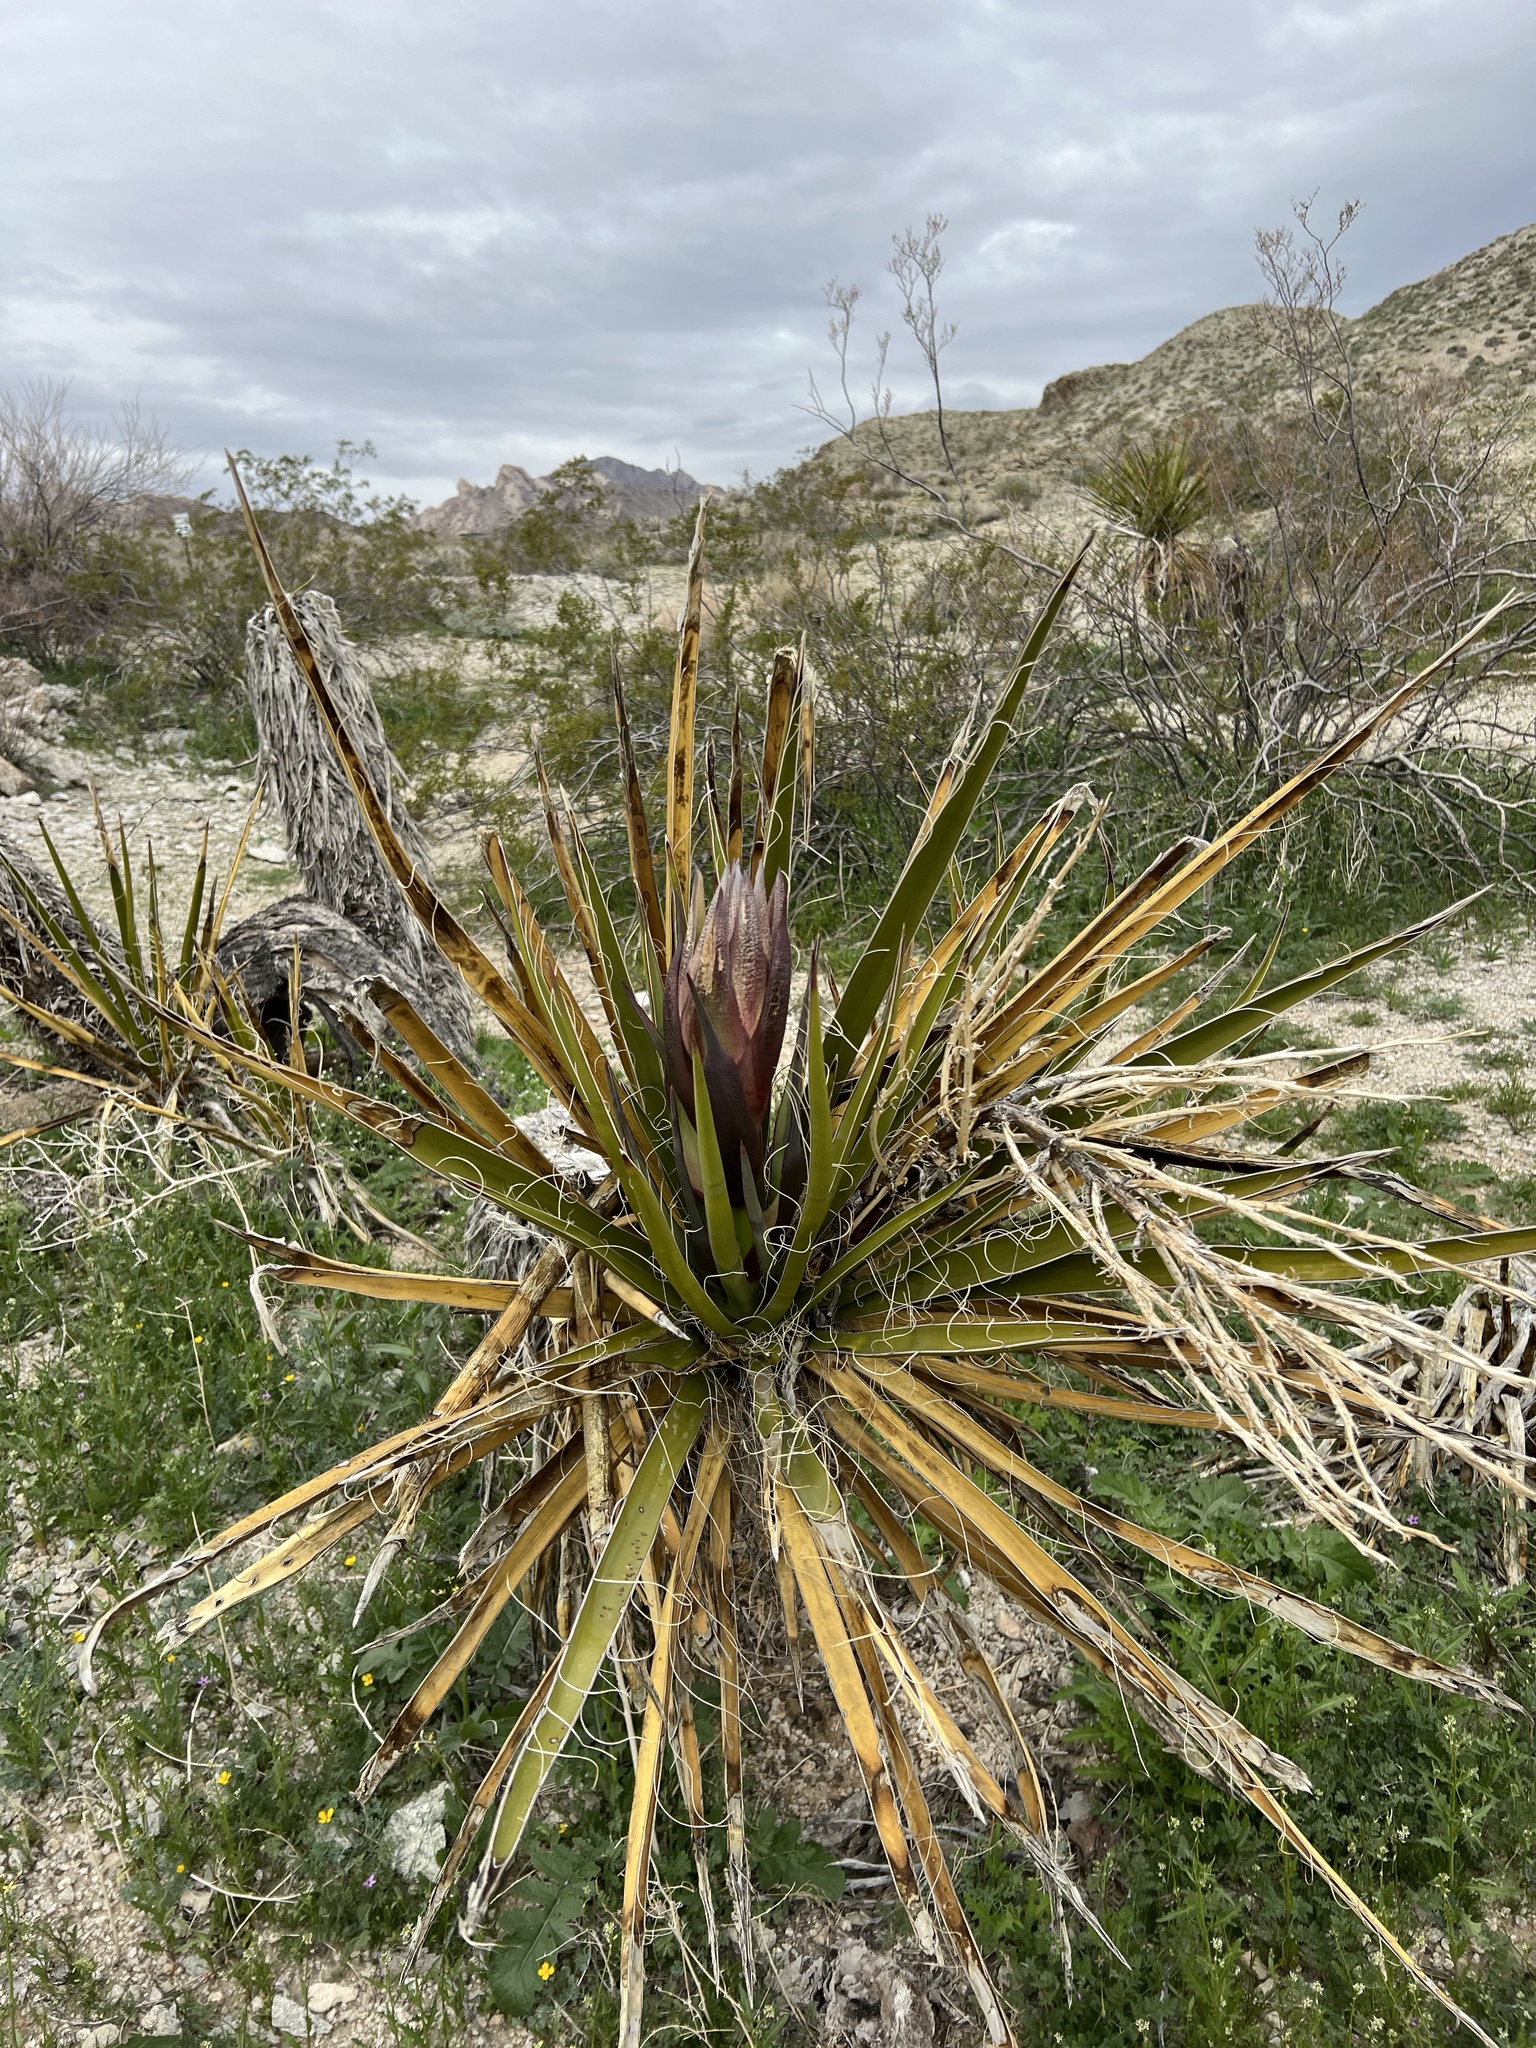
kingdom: Plantae
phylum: Tracheophyta
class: Liliopsida
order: Asparagales
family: Asparagaceae
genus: Yucca
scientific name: Yucca schidigera
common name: Mojave yucca
